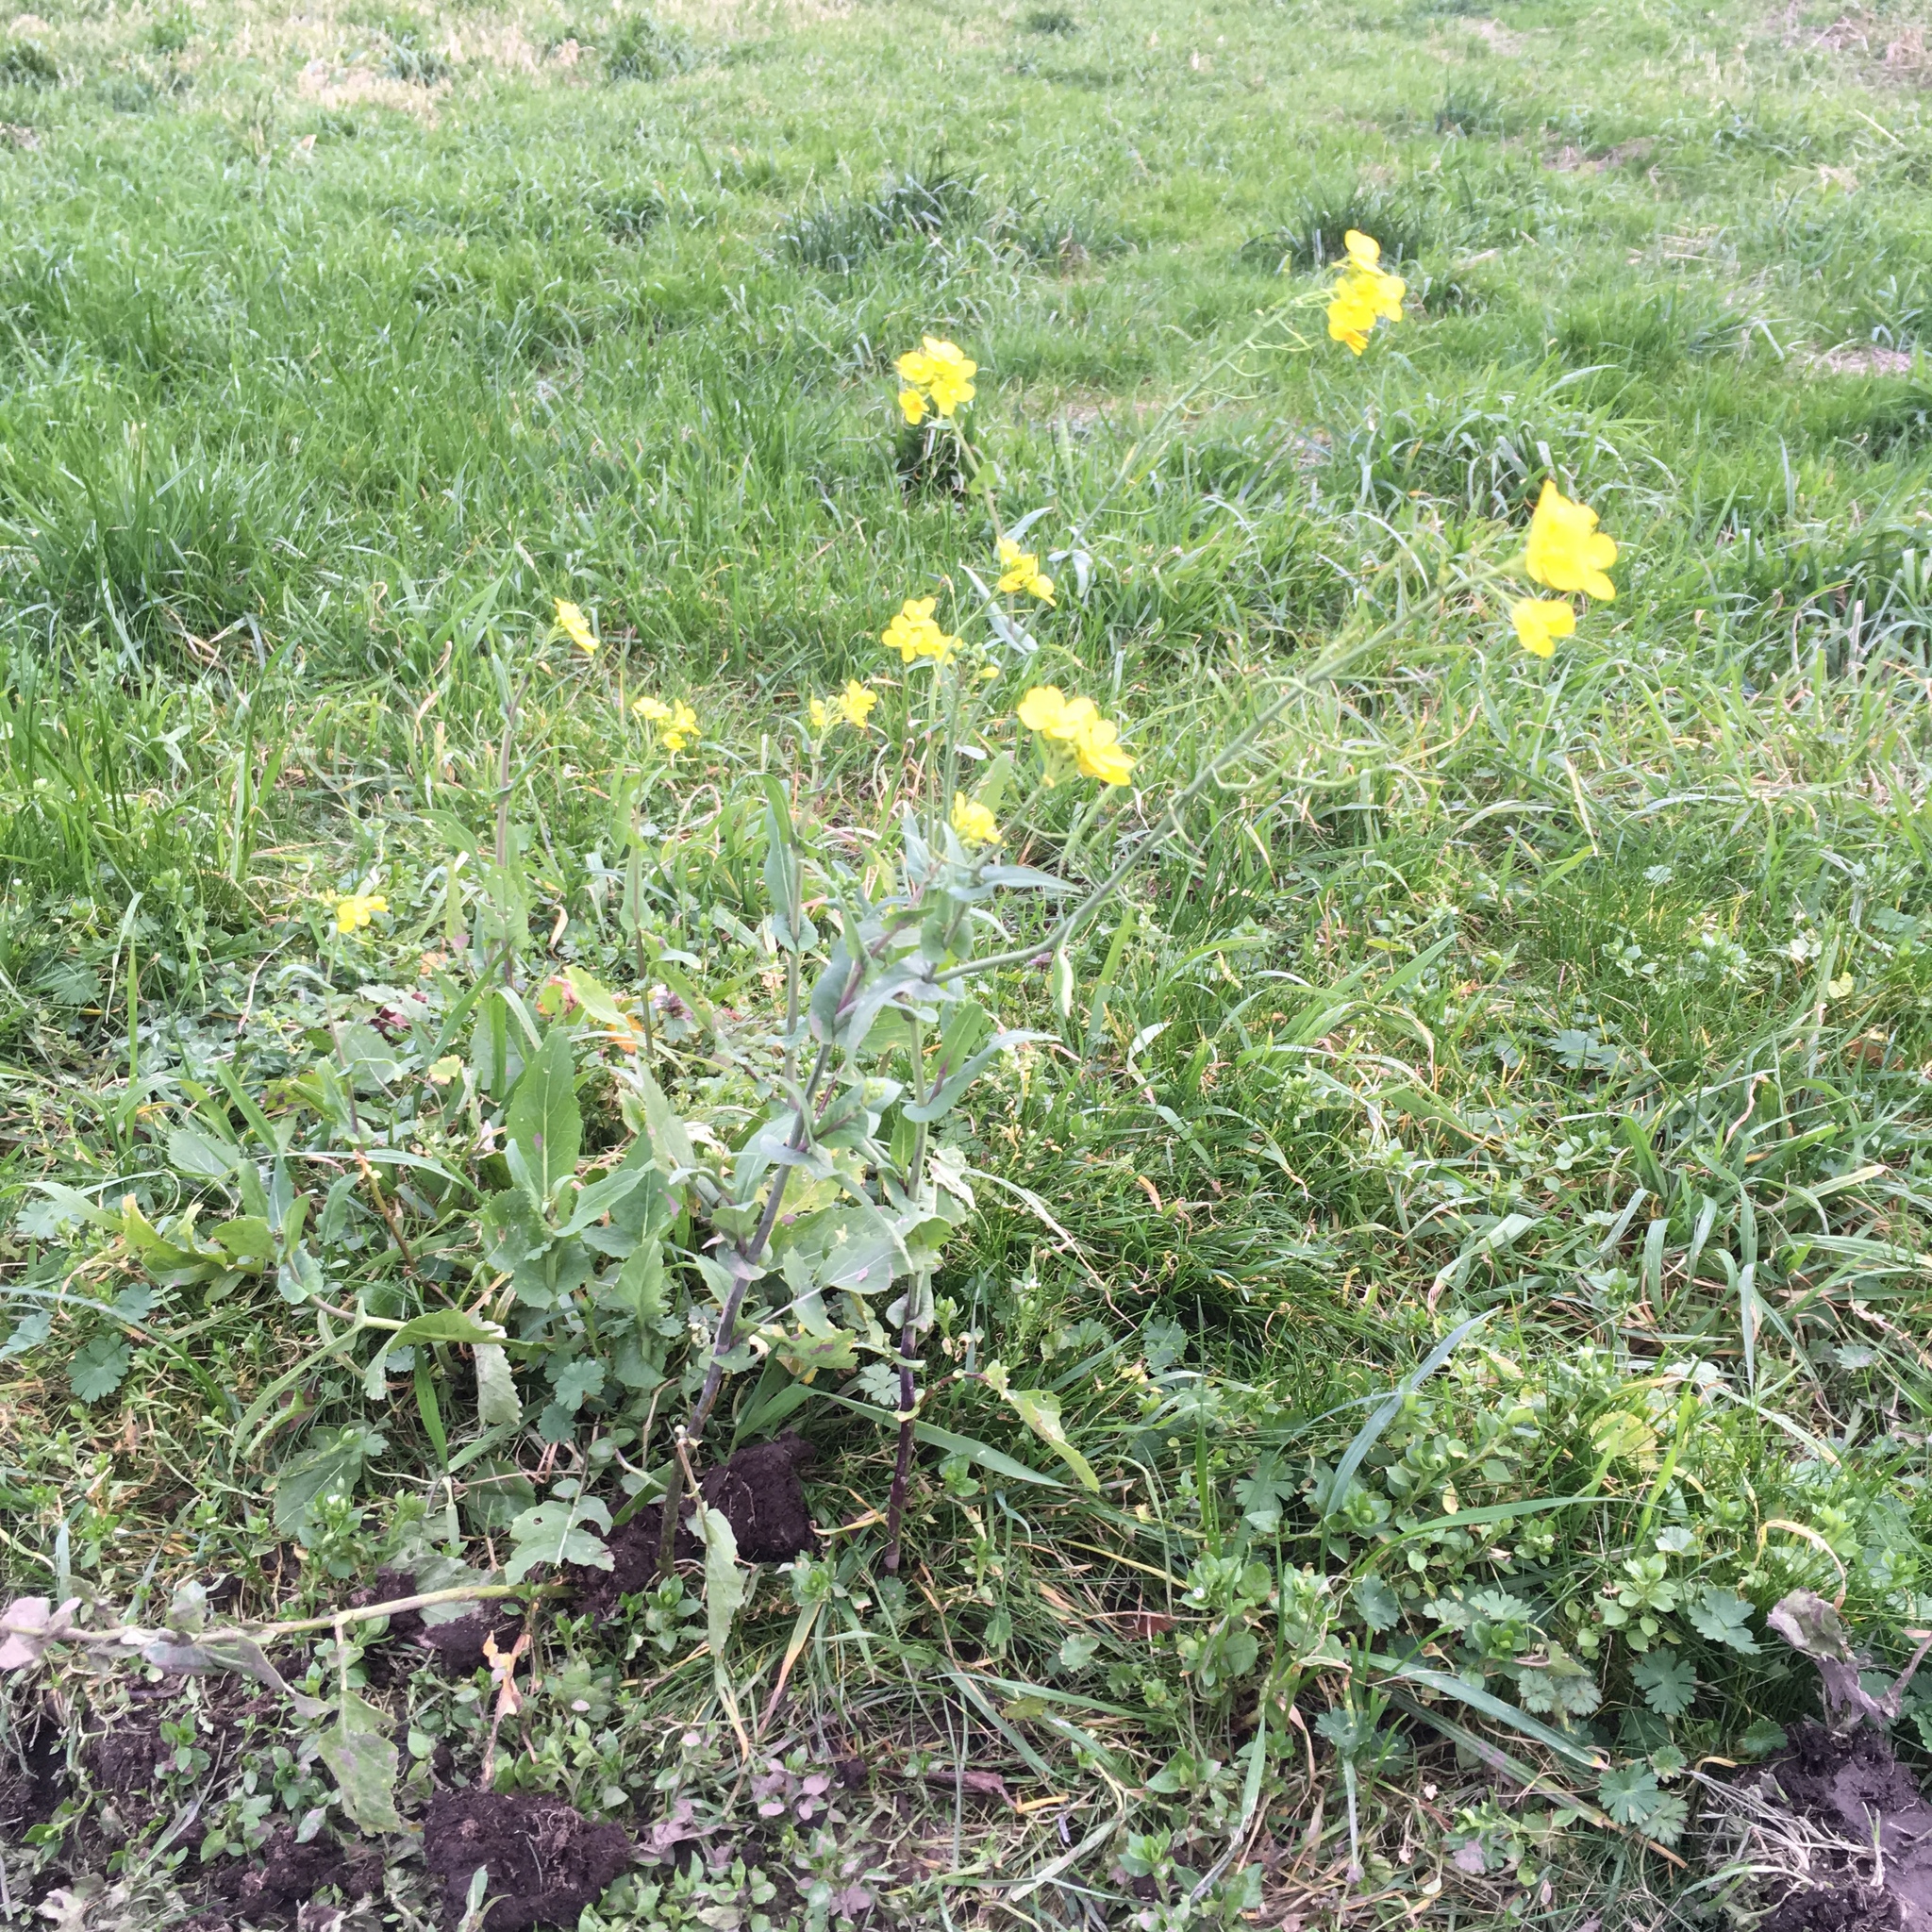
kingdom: Plantae
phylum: Tracheophyta
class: Magnoliopsida
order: Brassicales
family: Brassicaceae
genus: Brassica
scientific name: Brassica rapa
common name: Field mustard
